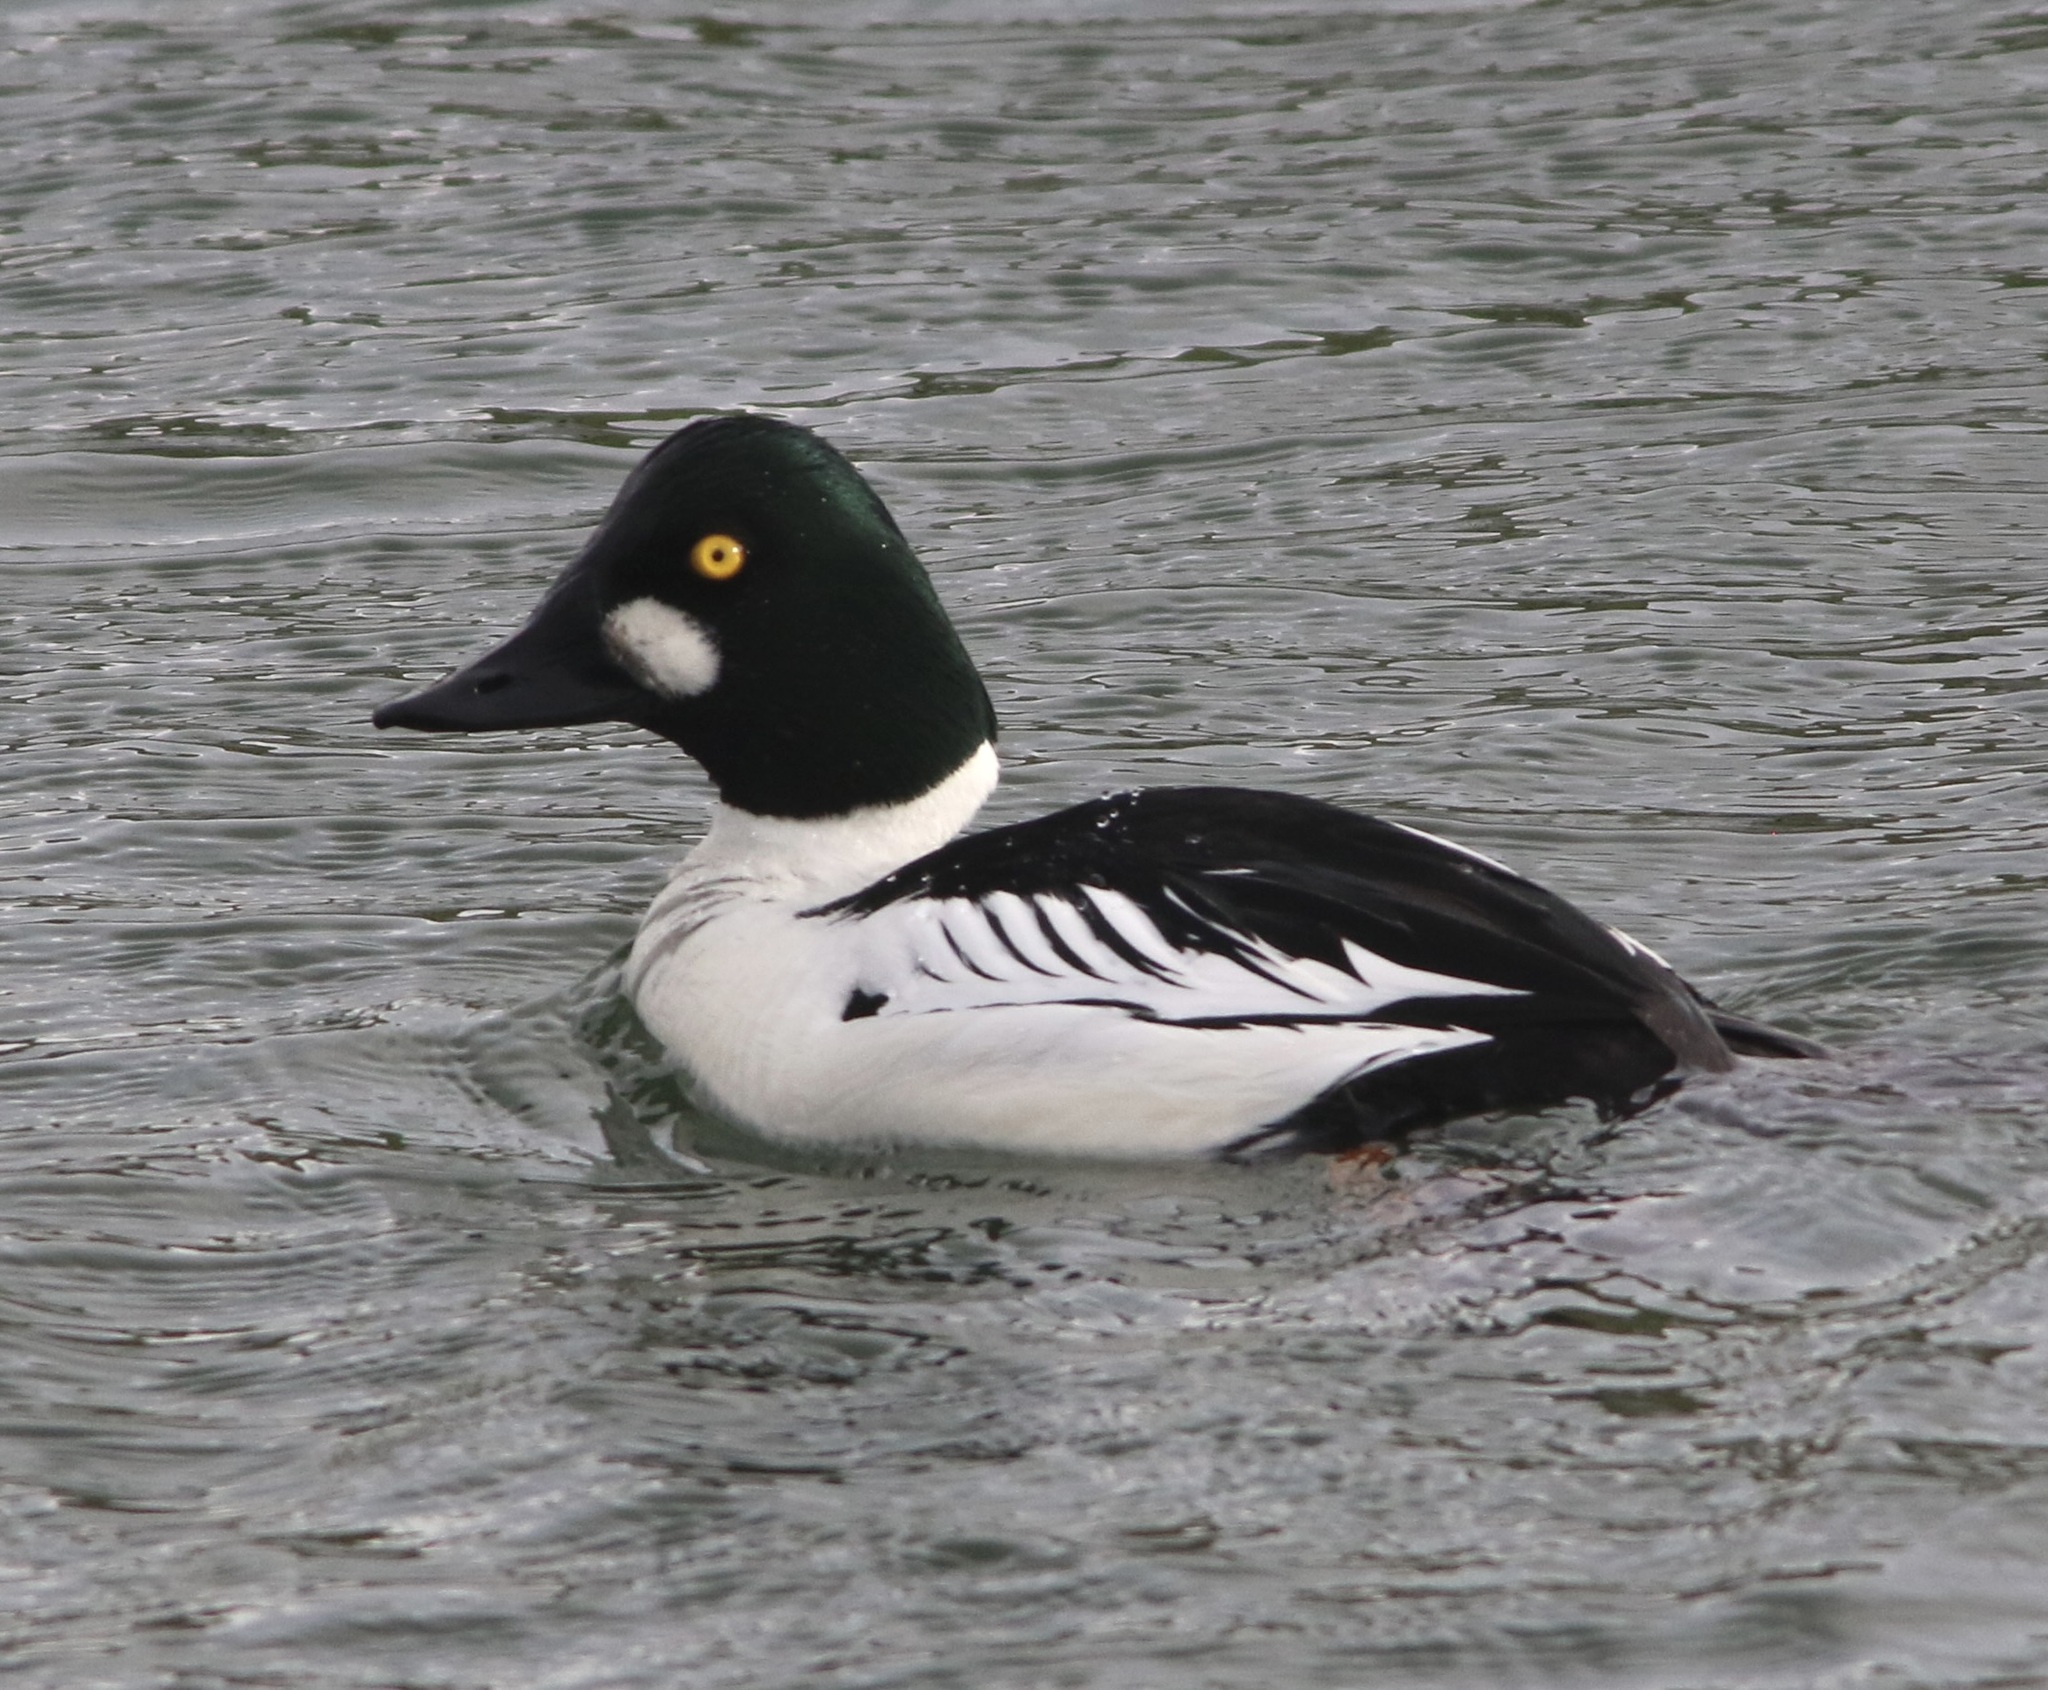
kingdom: Animalia
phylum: Chordata
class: Aves
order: Anseriformes
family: Anatidae
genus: Bucephala
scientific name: Bucephala clangula
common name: Common goldeneye
